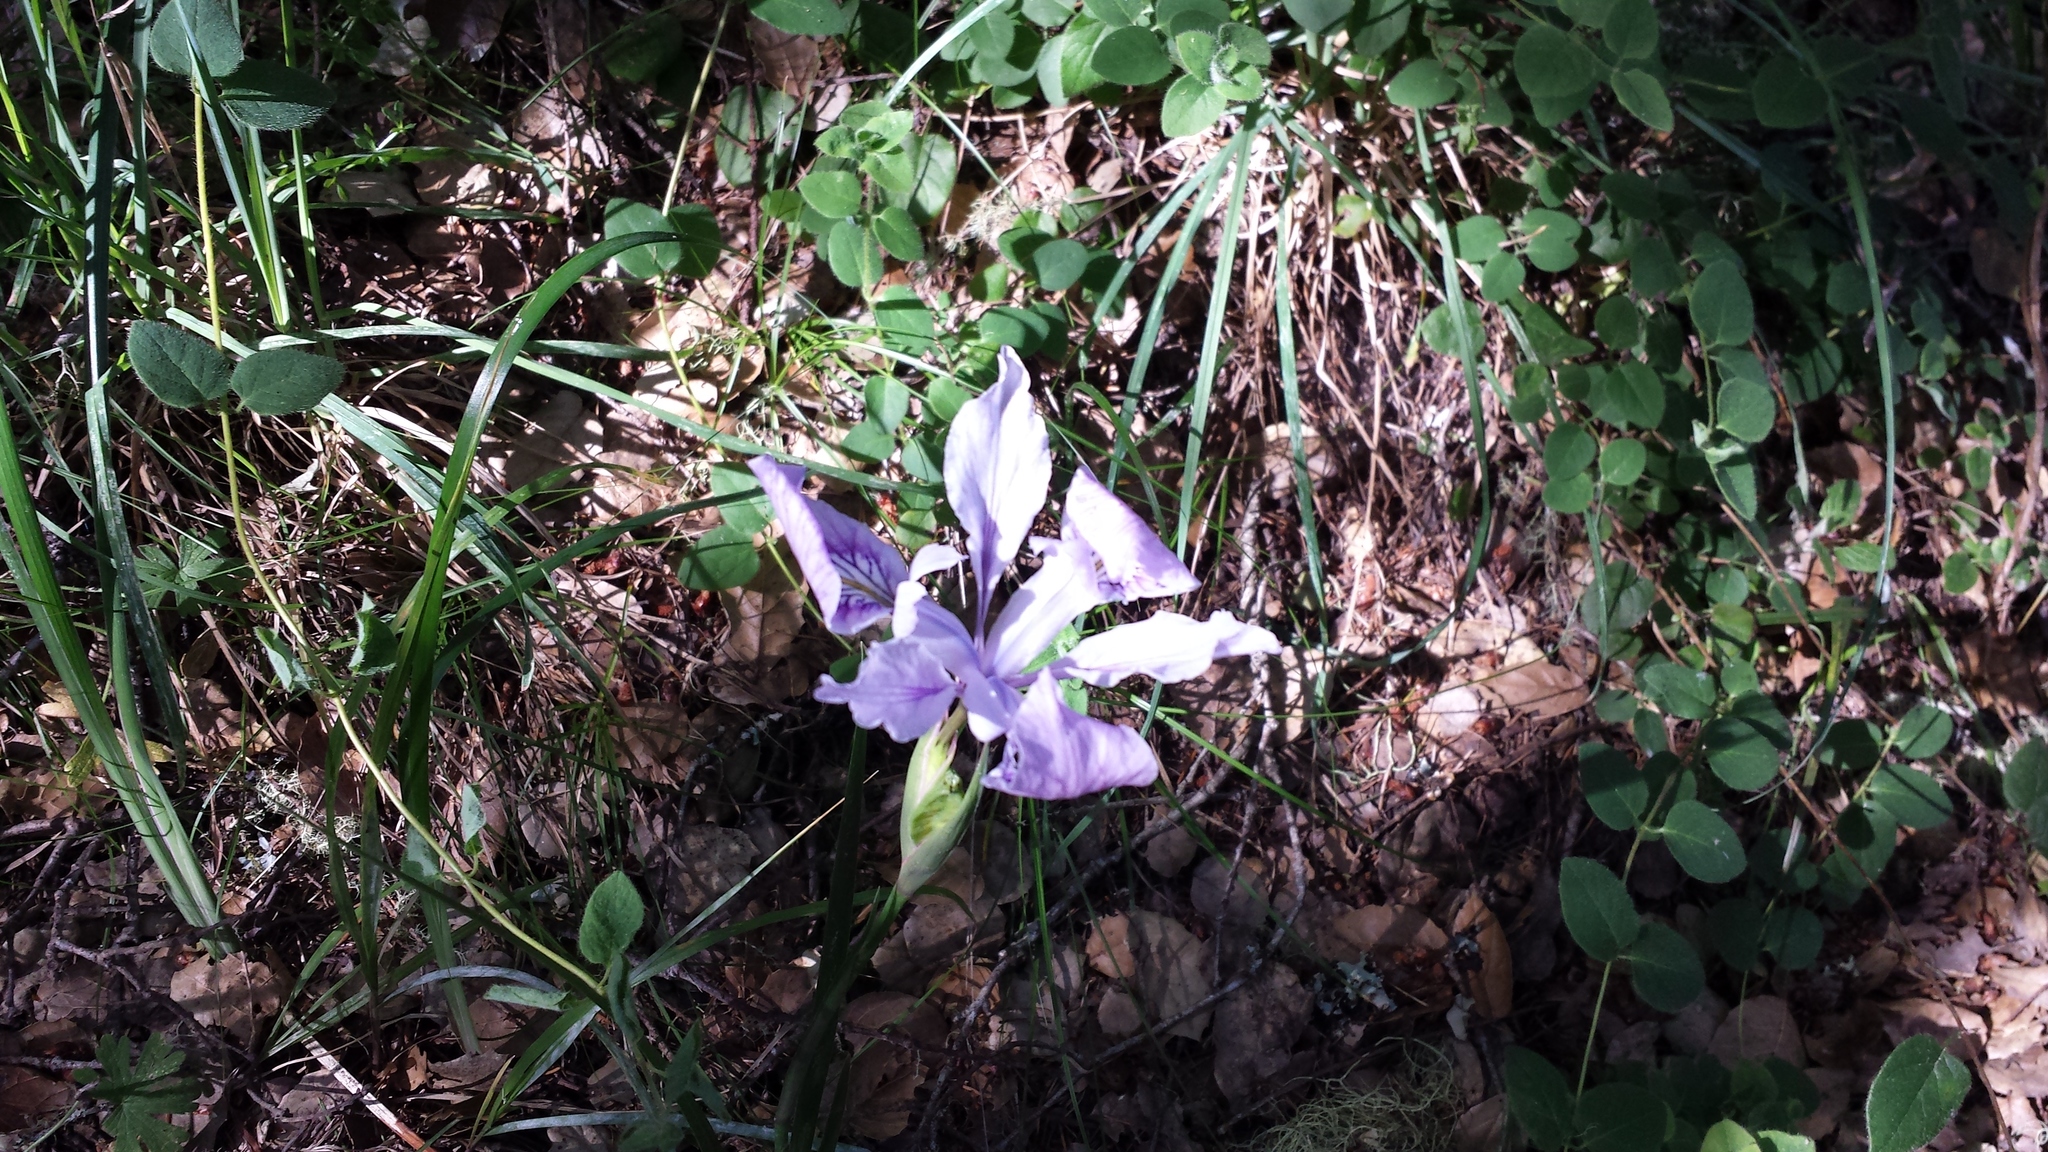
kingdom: Plantae
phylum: Tracheophyta
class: Liliopsida
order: Asparagales
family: Iridaceae
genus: Iris
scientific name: Iris douglasiana
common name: Marin iris
